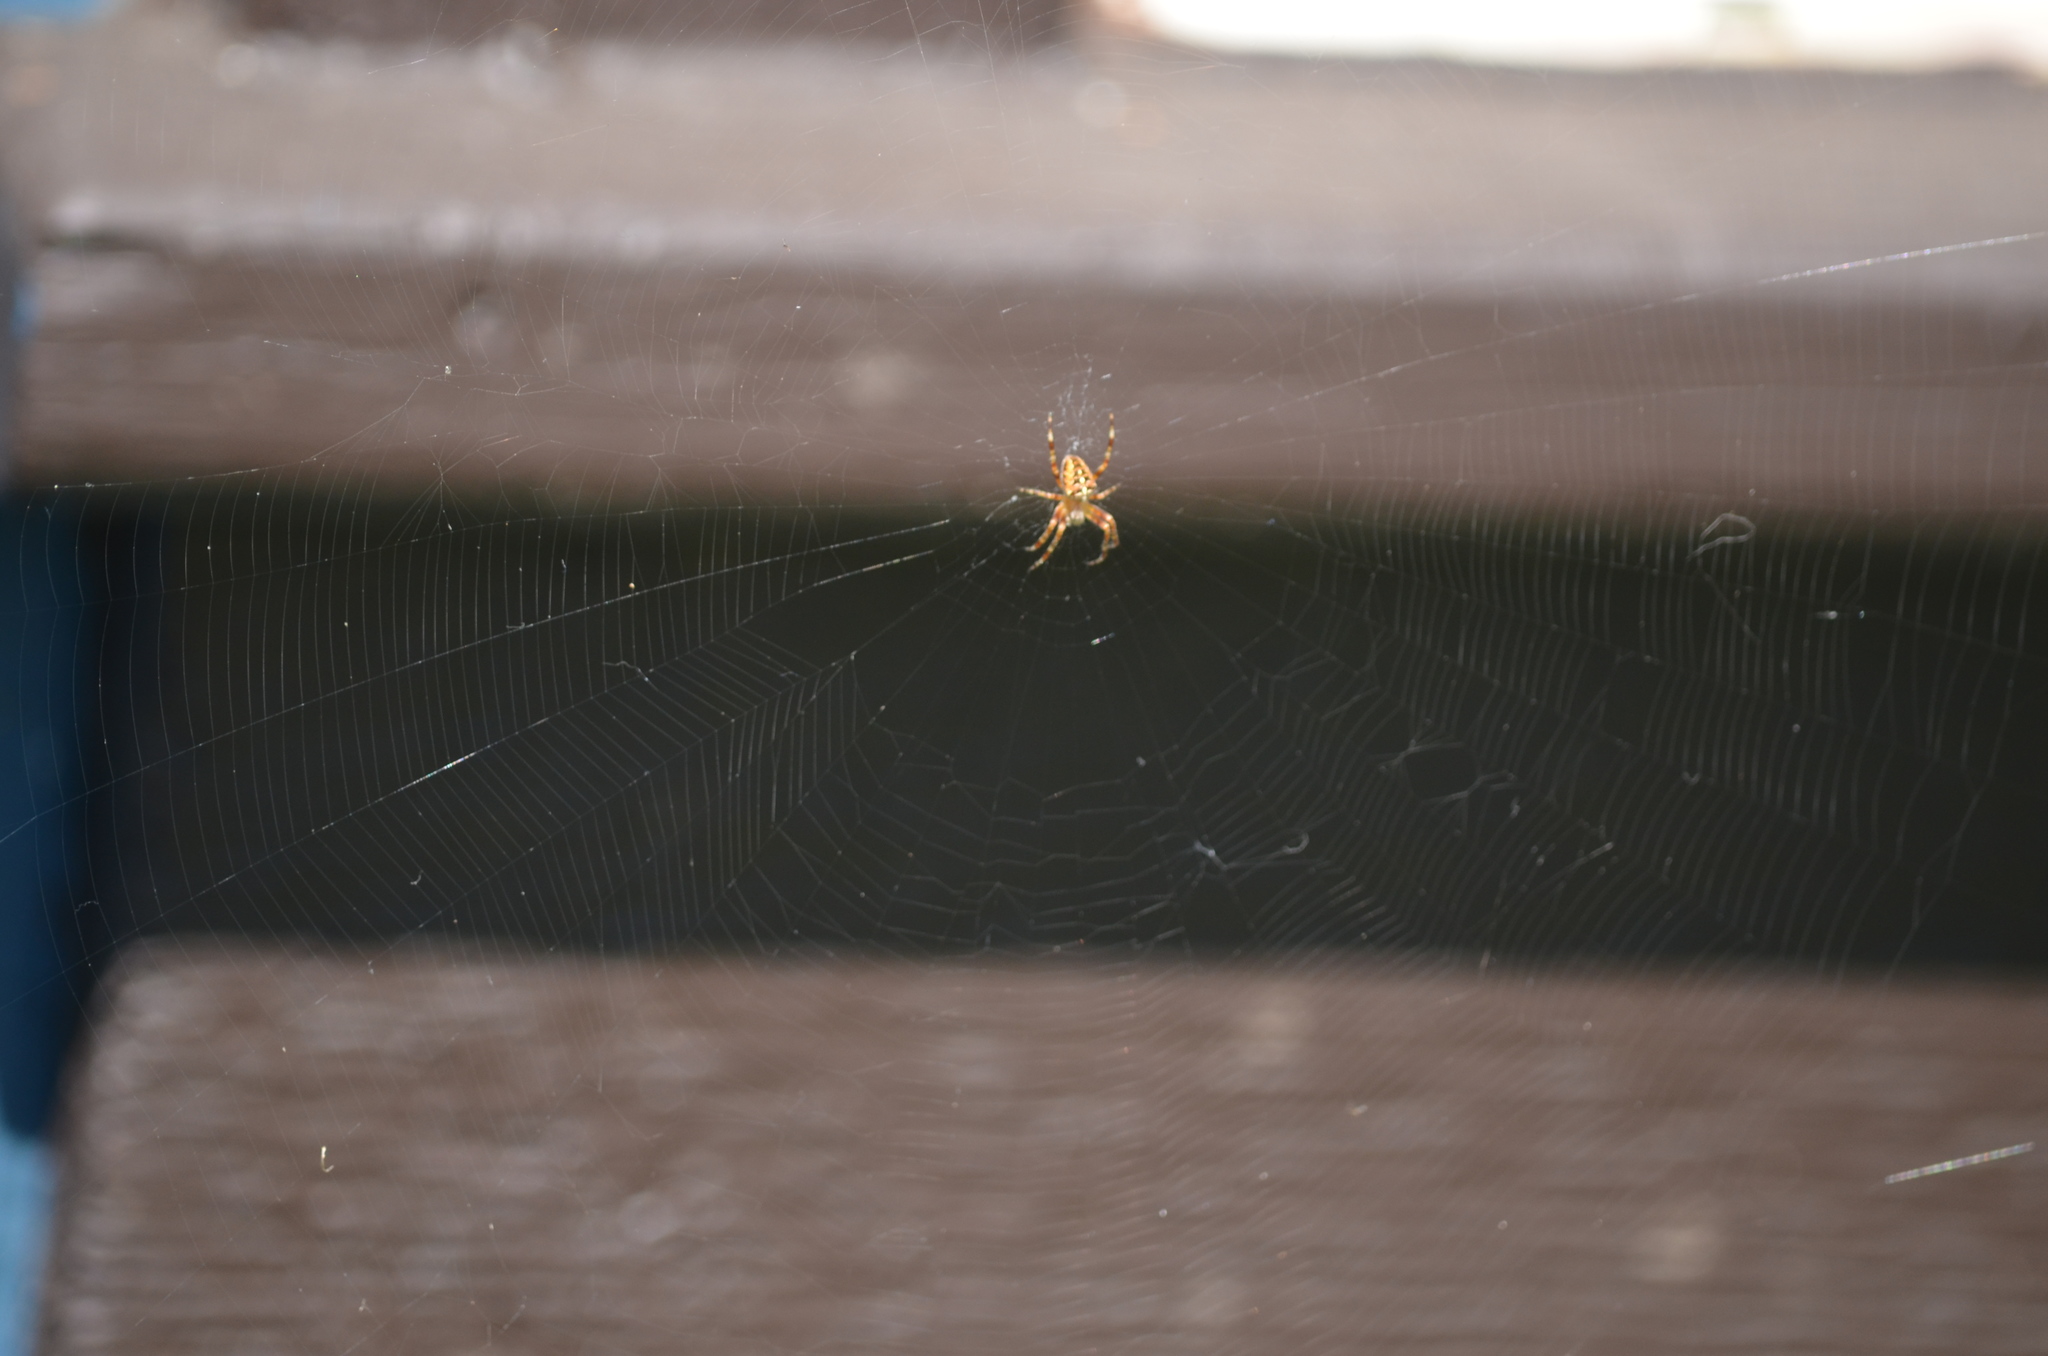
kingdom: Animalia
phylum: Arthropoda
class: Arachnida
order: Araneae
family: Araneidae
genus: Araneus
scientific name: Araneus diadematus
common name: Cross orbweaver
